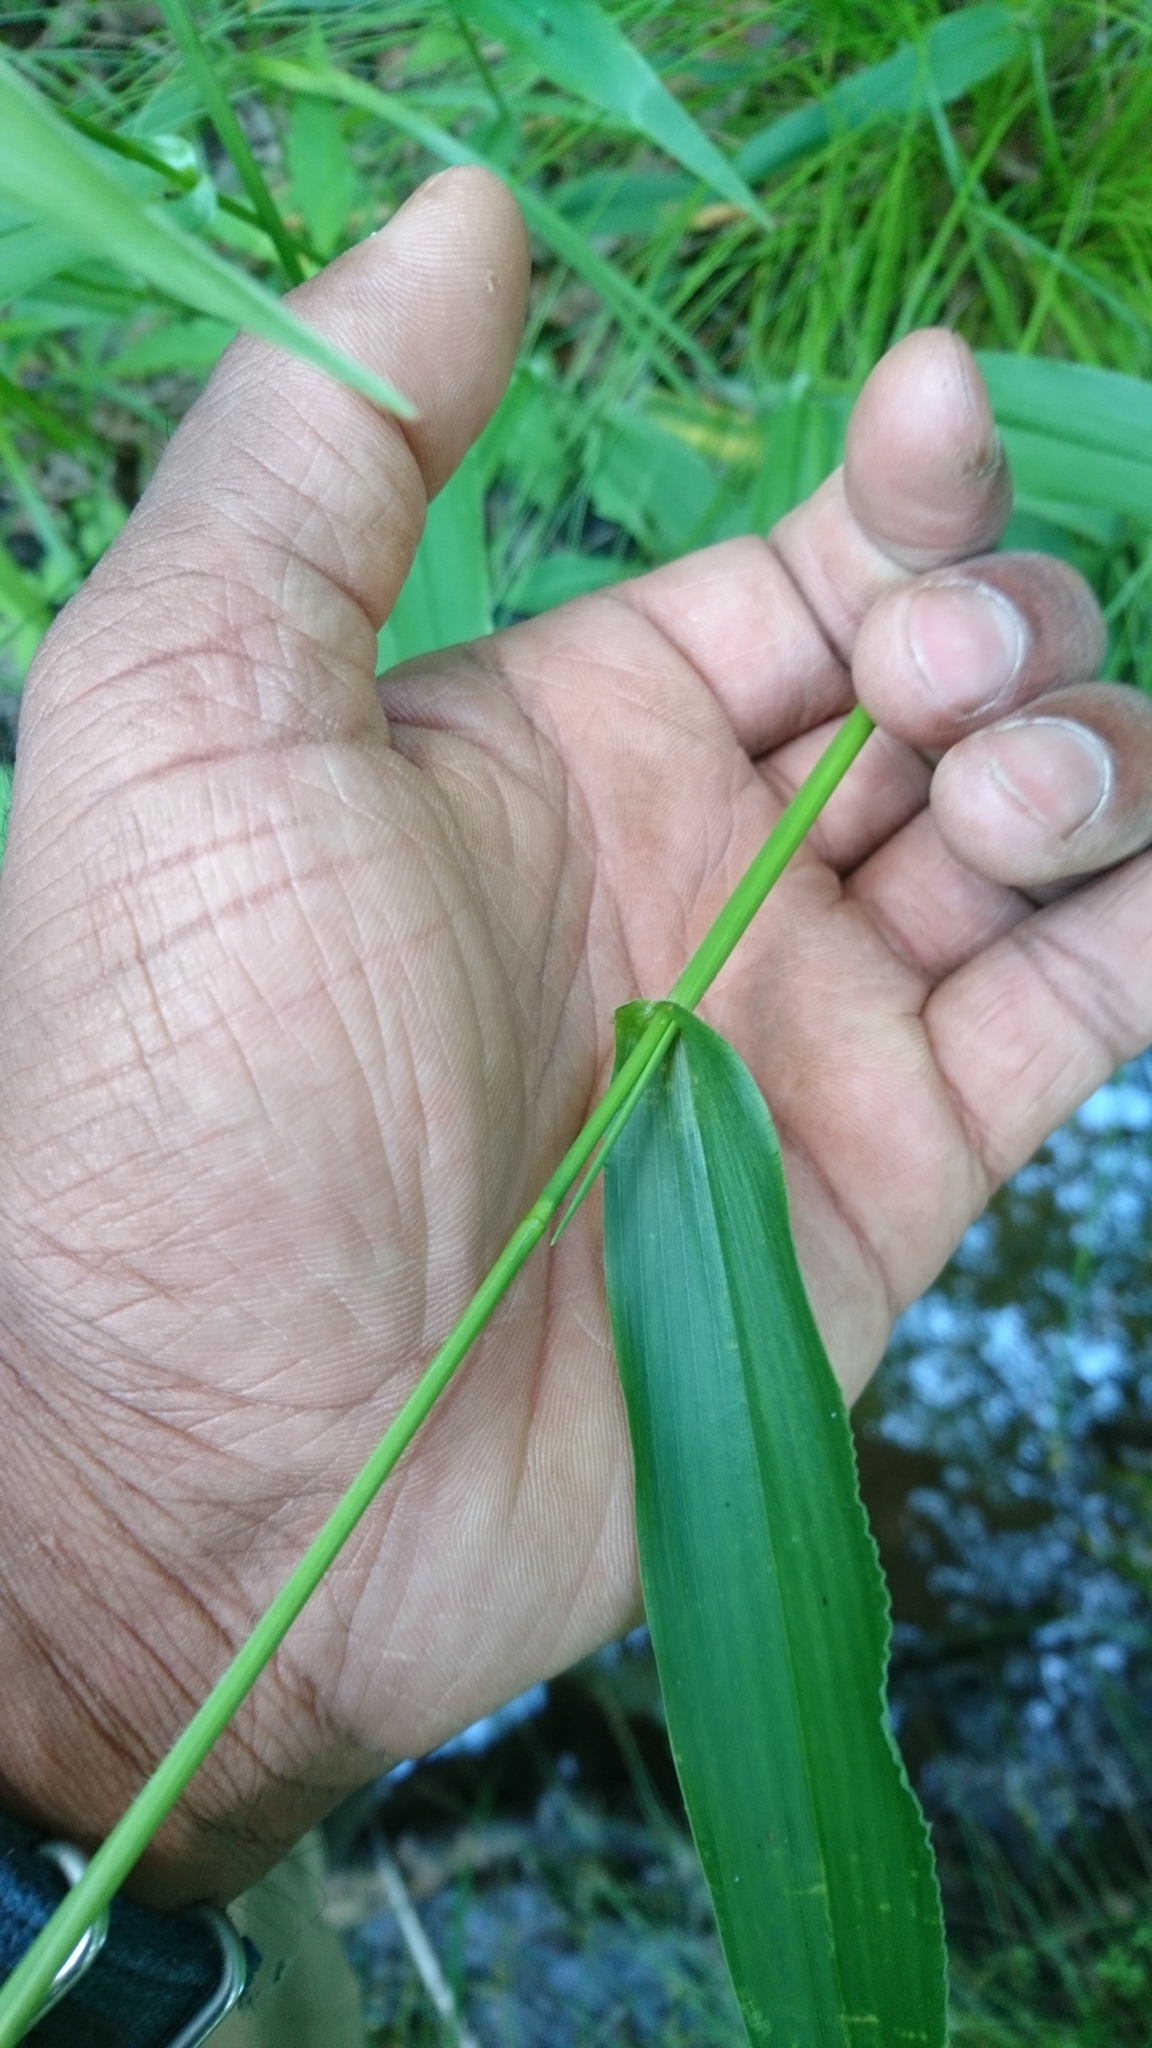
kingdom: Plantae
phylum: Tracheophyta
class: Liliopsida
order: Poales
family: Poaceae
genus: Dichanthelium
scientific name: Dichanthelium clandestinum
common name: Deer-tongue grass
